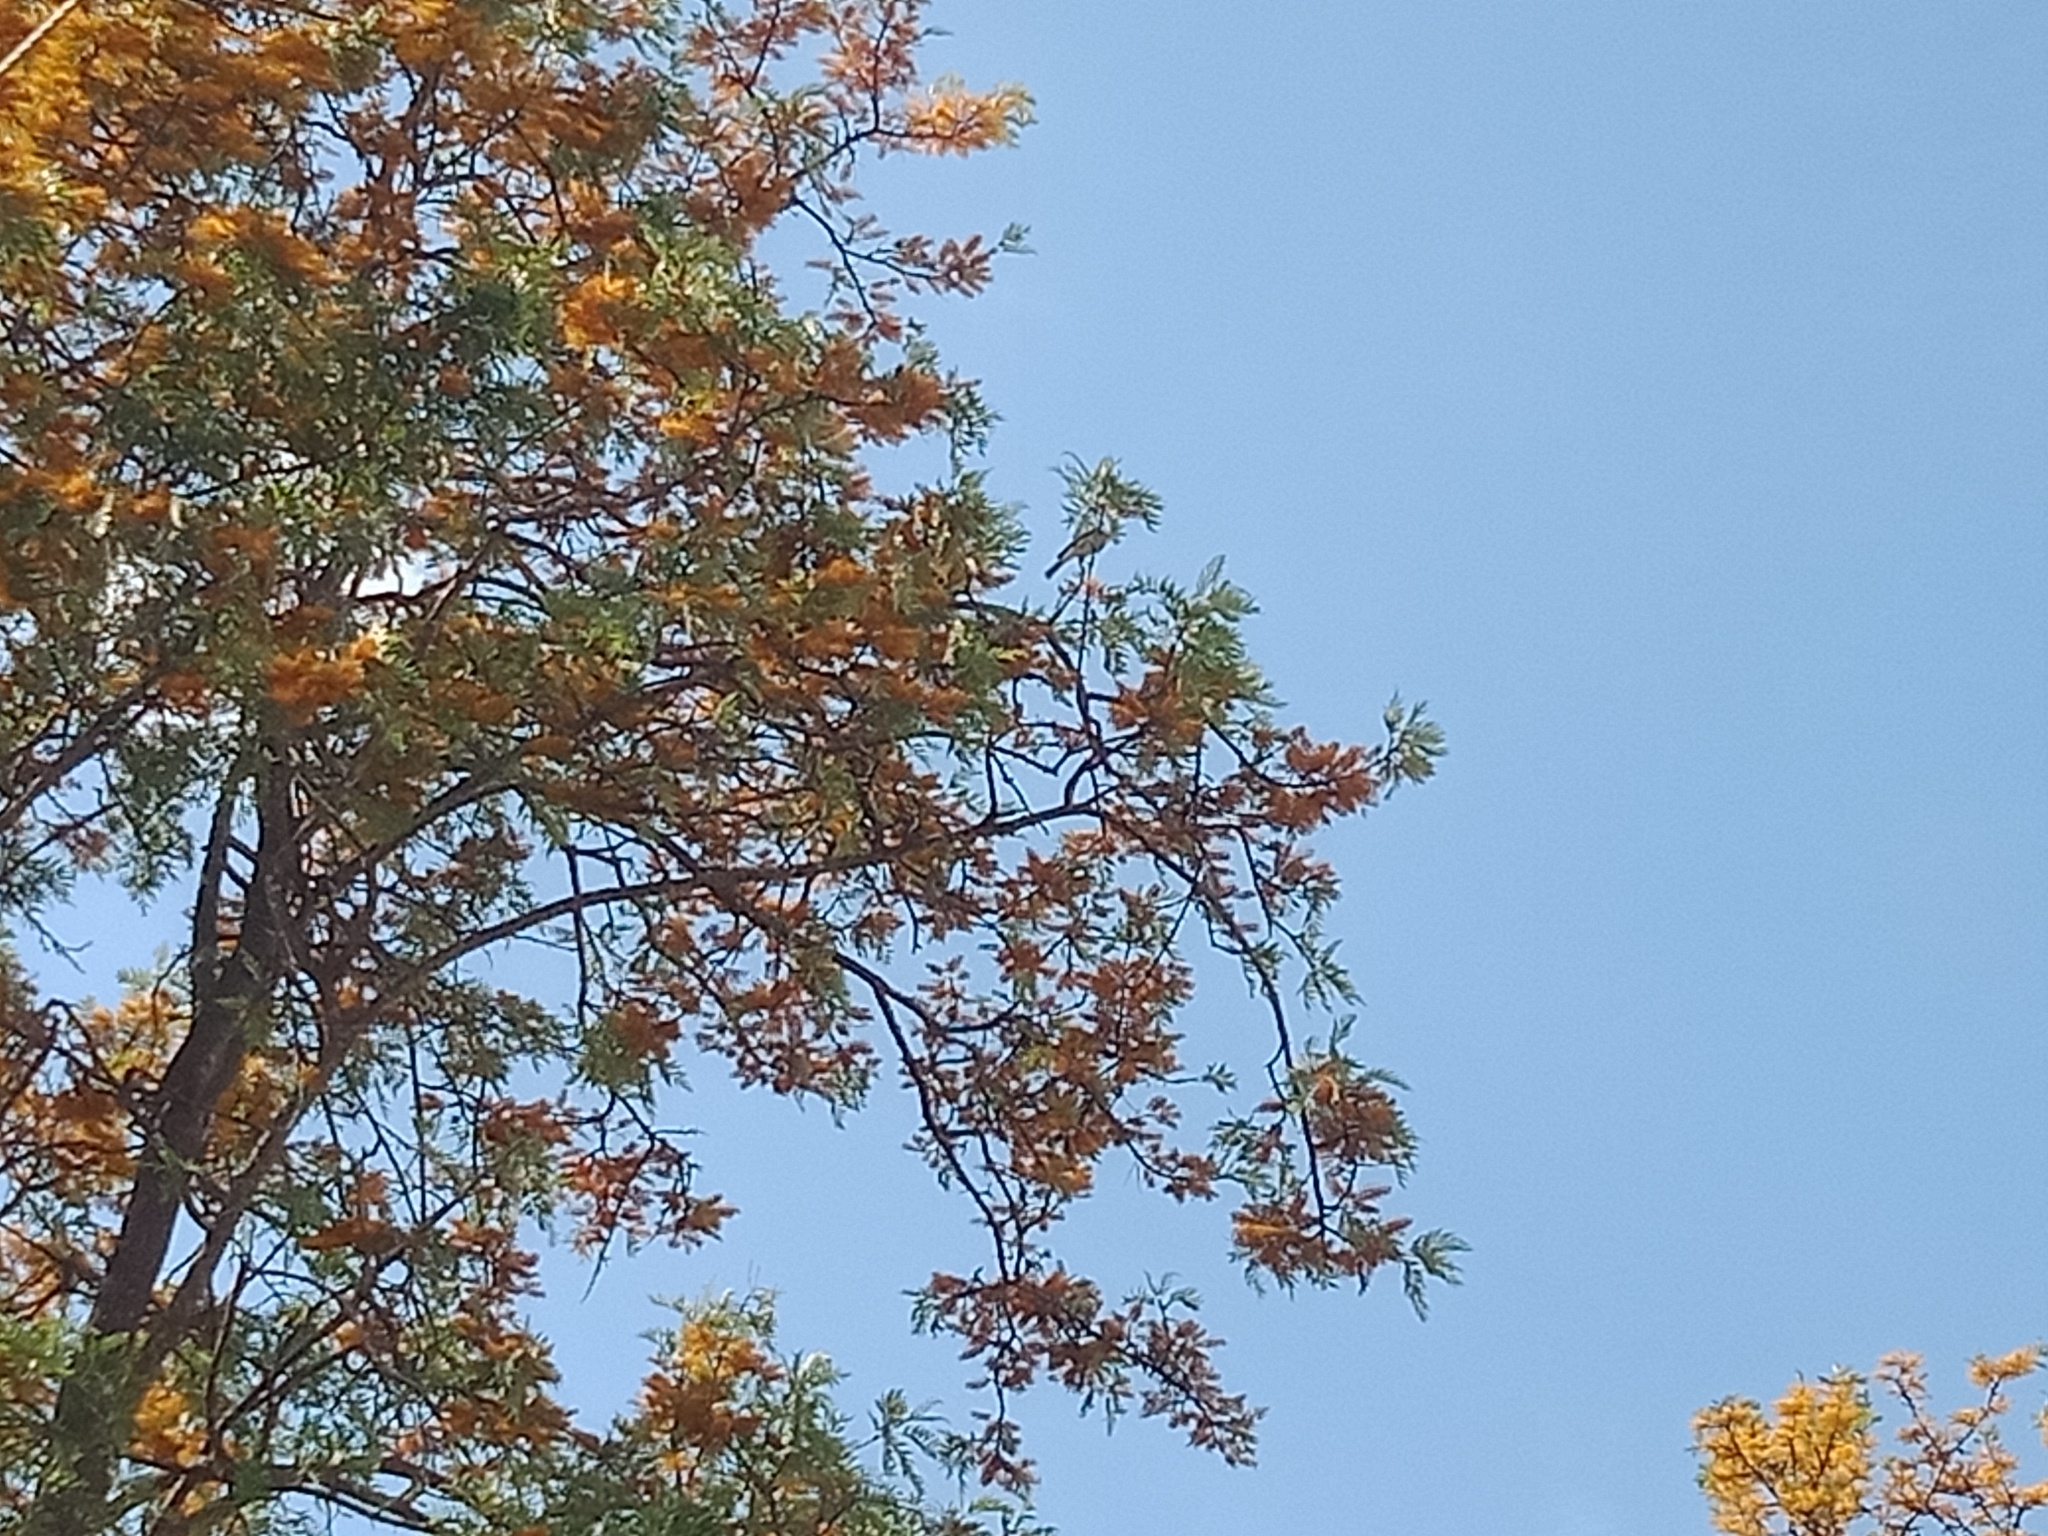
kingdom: Animalia
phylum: Chordata
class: Aves
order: Passeriformes
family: Meliphagidae
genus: Philemon
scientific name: Philemon corniculatus
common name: Noisy friarbird
